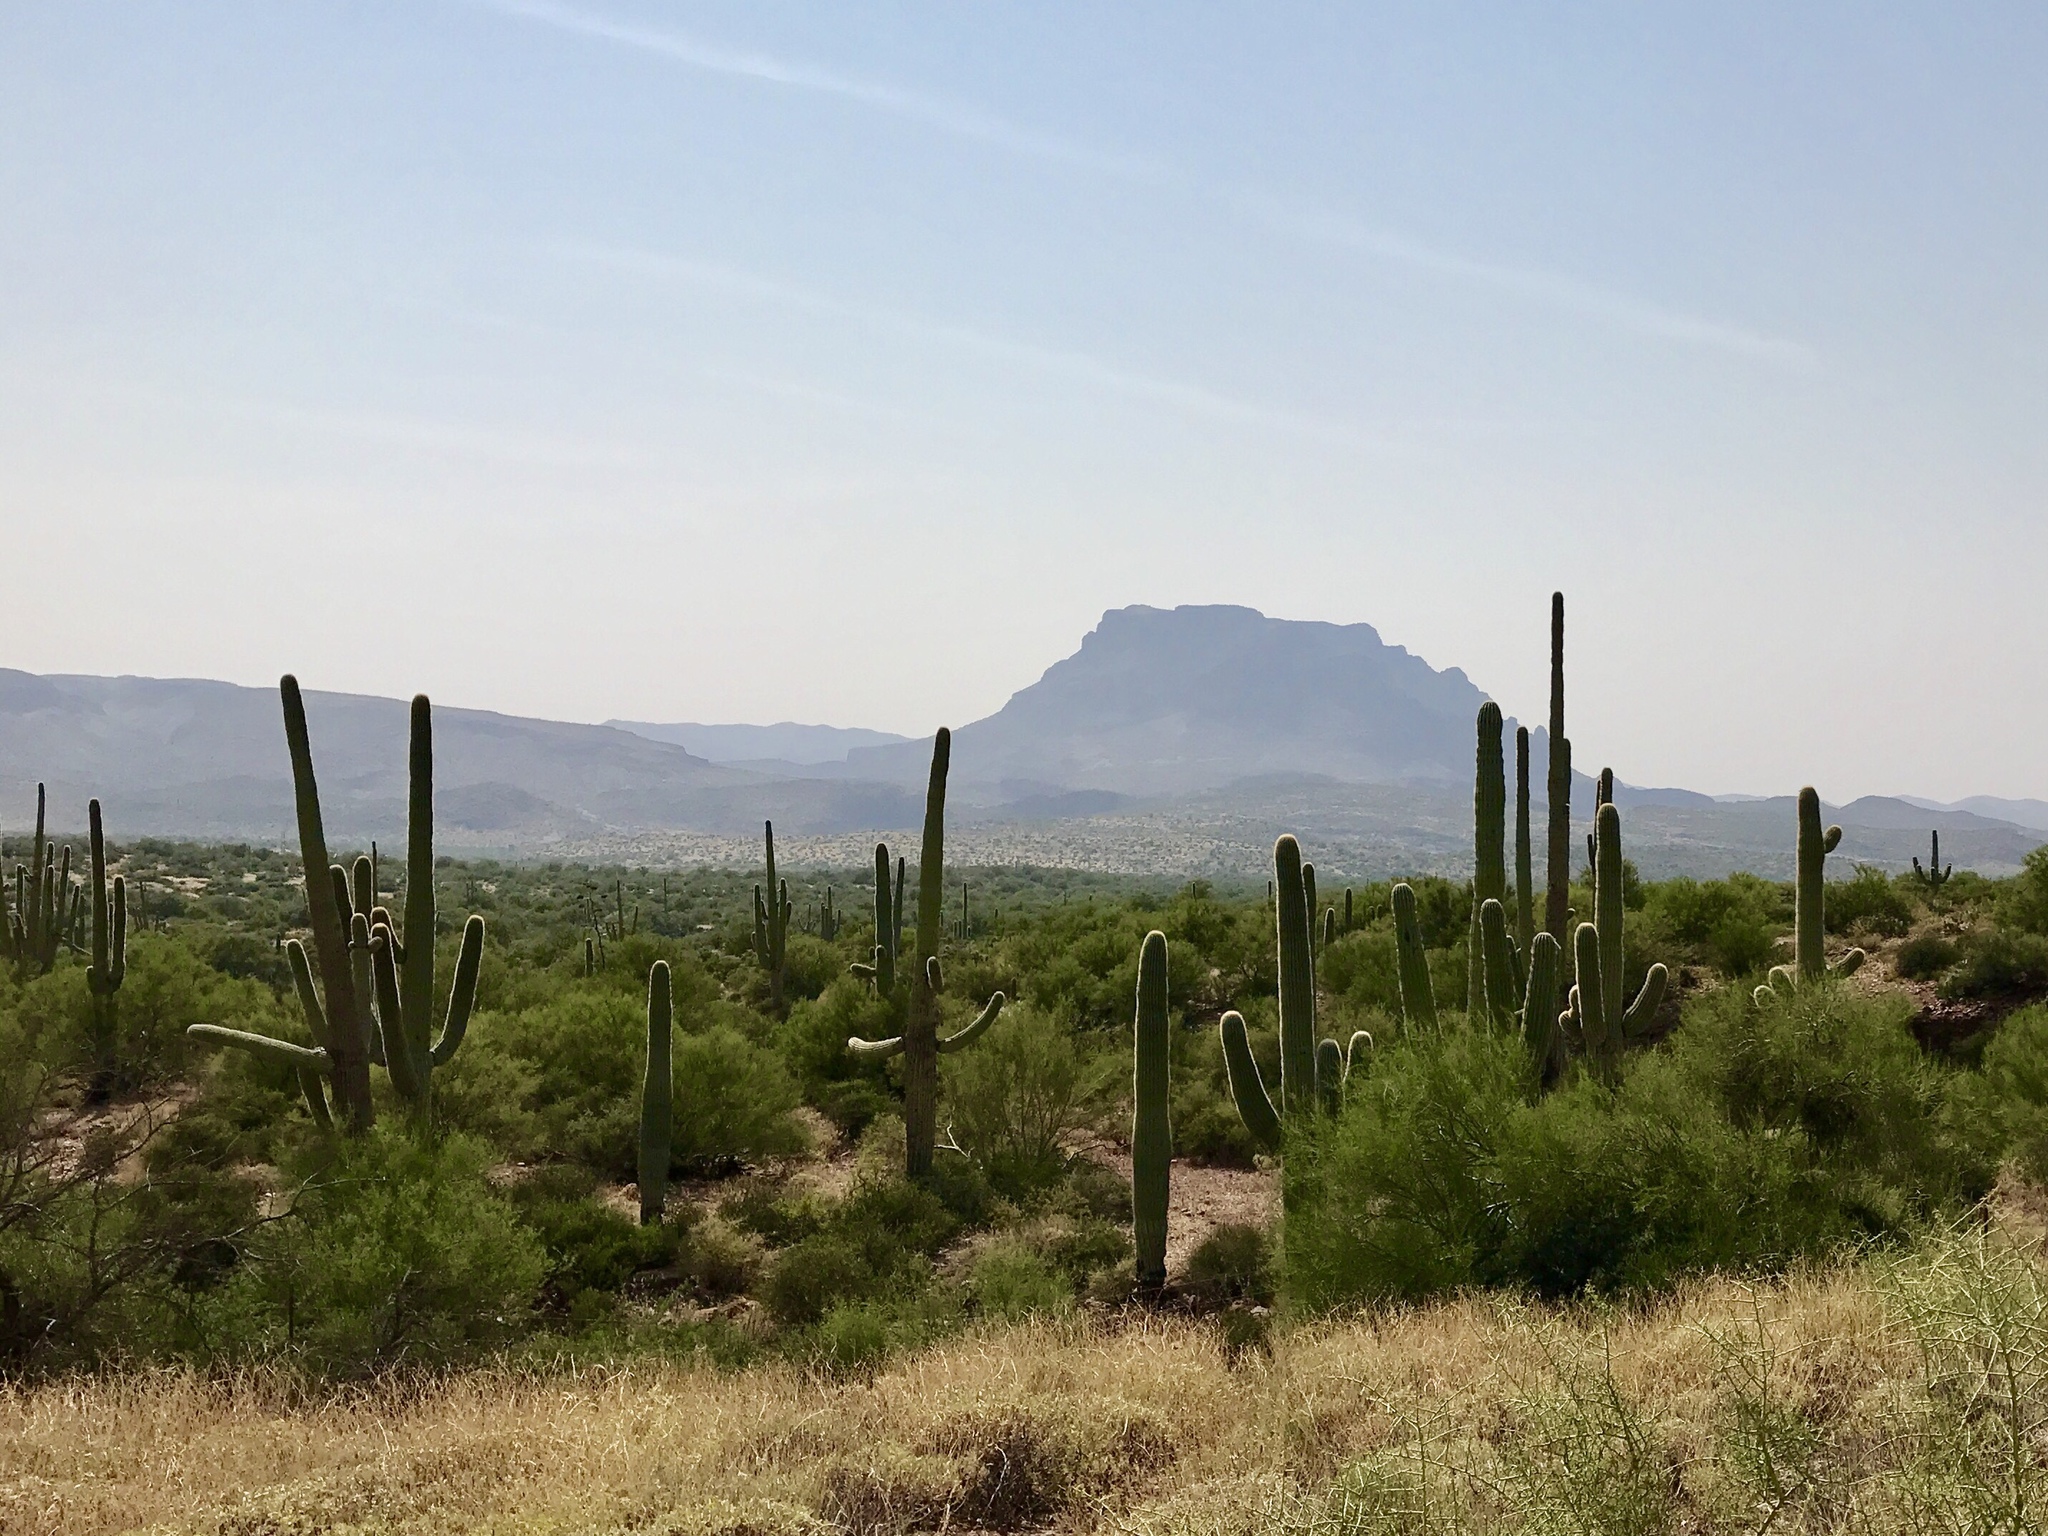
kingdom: Plantae
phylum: Tracheophyta
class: Magnoliopsida
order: Caryophyllales
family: Cactaceae
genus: Carnegiea
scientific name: Carnegiea gigantea
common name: Saguaro
